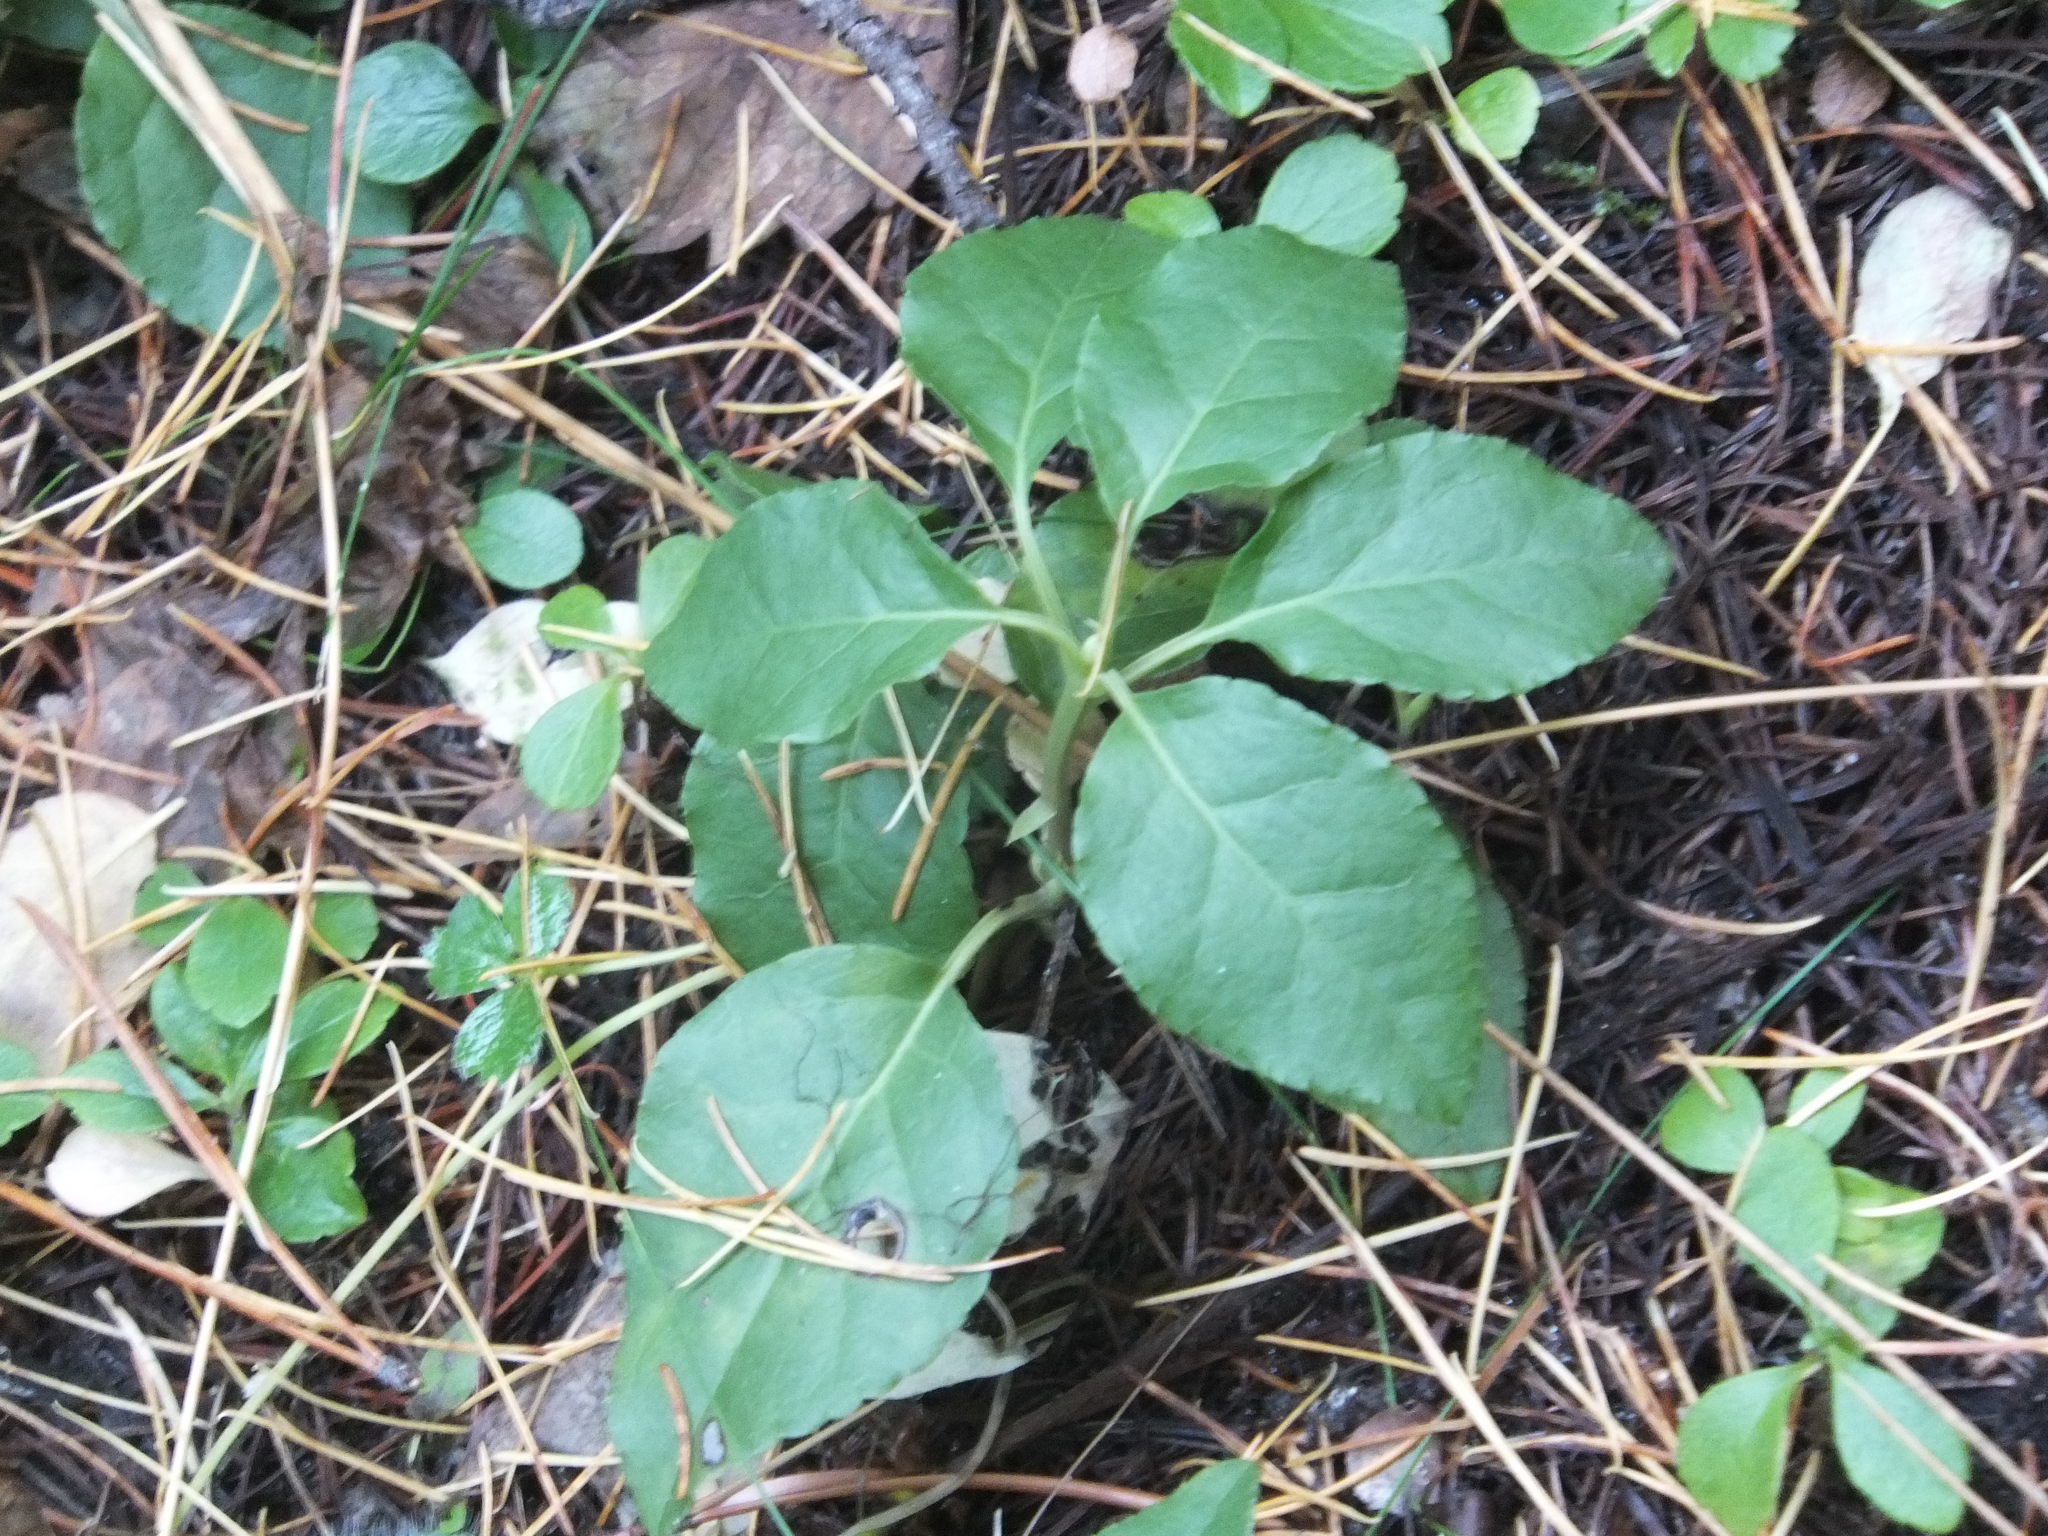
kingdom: Plantae
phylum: Tracheophyta
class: Magnoliopsida
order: Ericales
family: Ericaceae
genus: Orthilia
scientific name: Orthilia secunda
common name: One-sided orthilia
